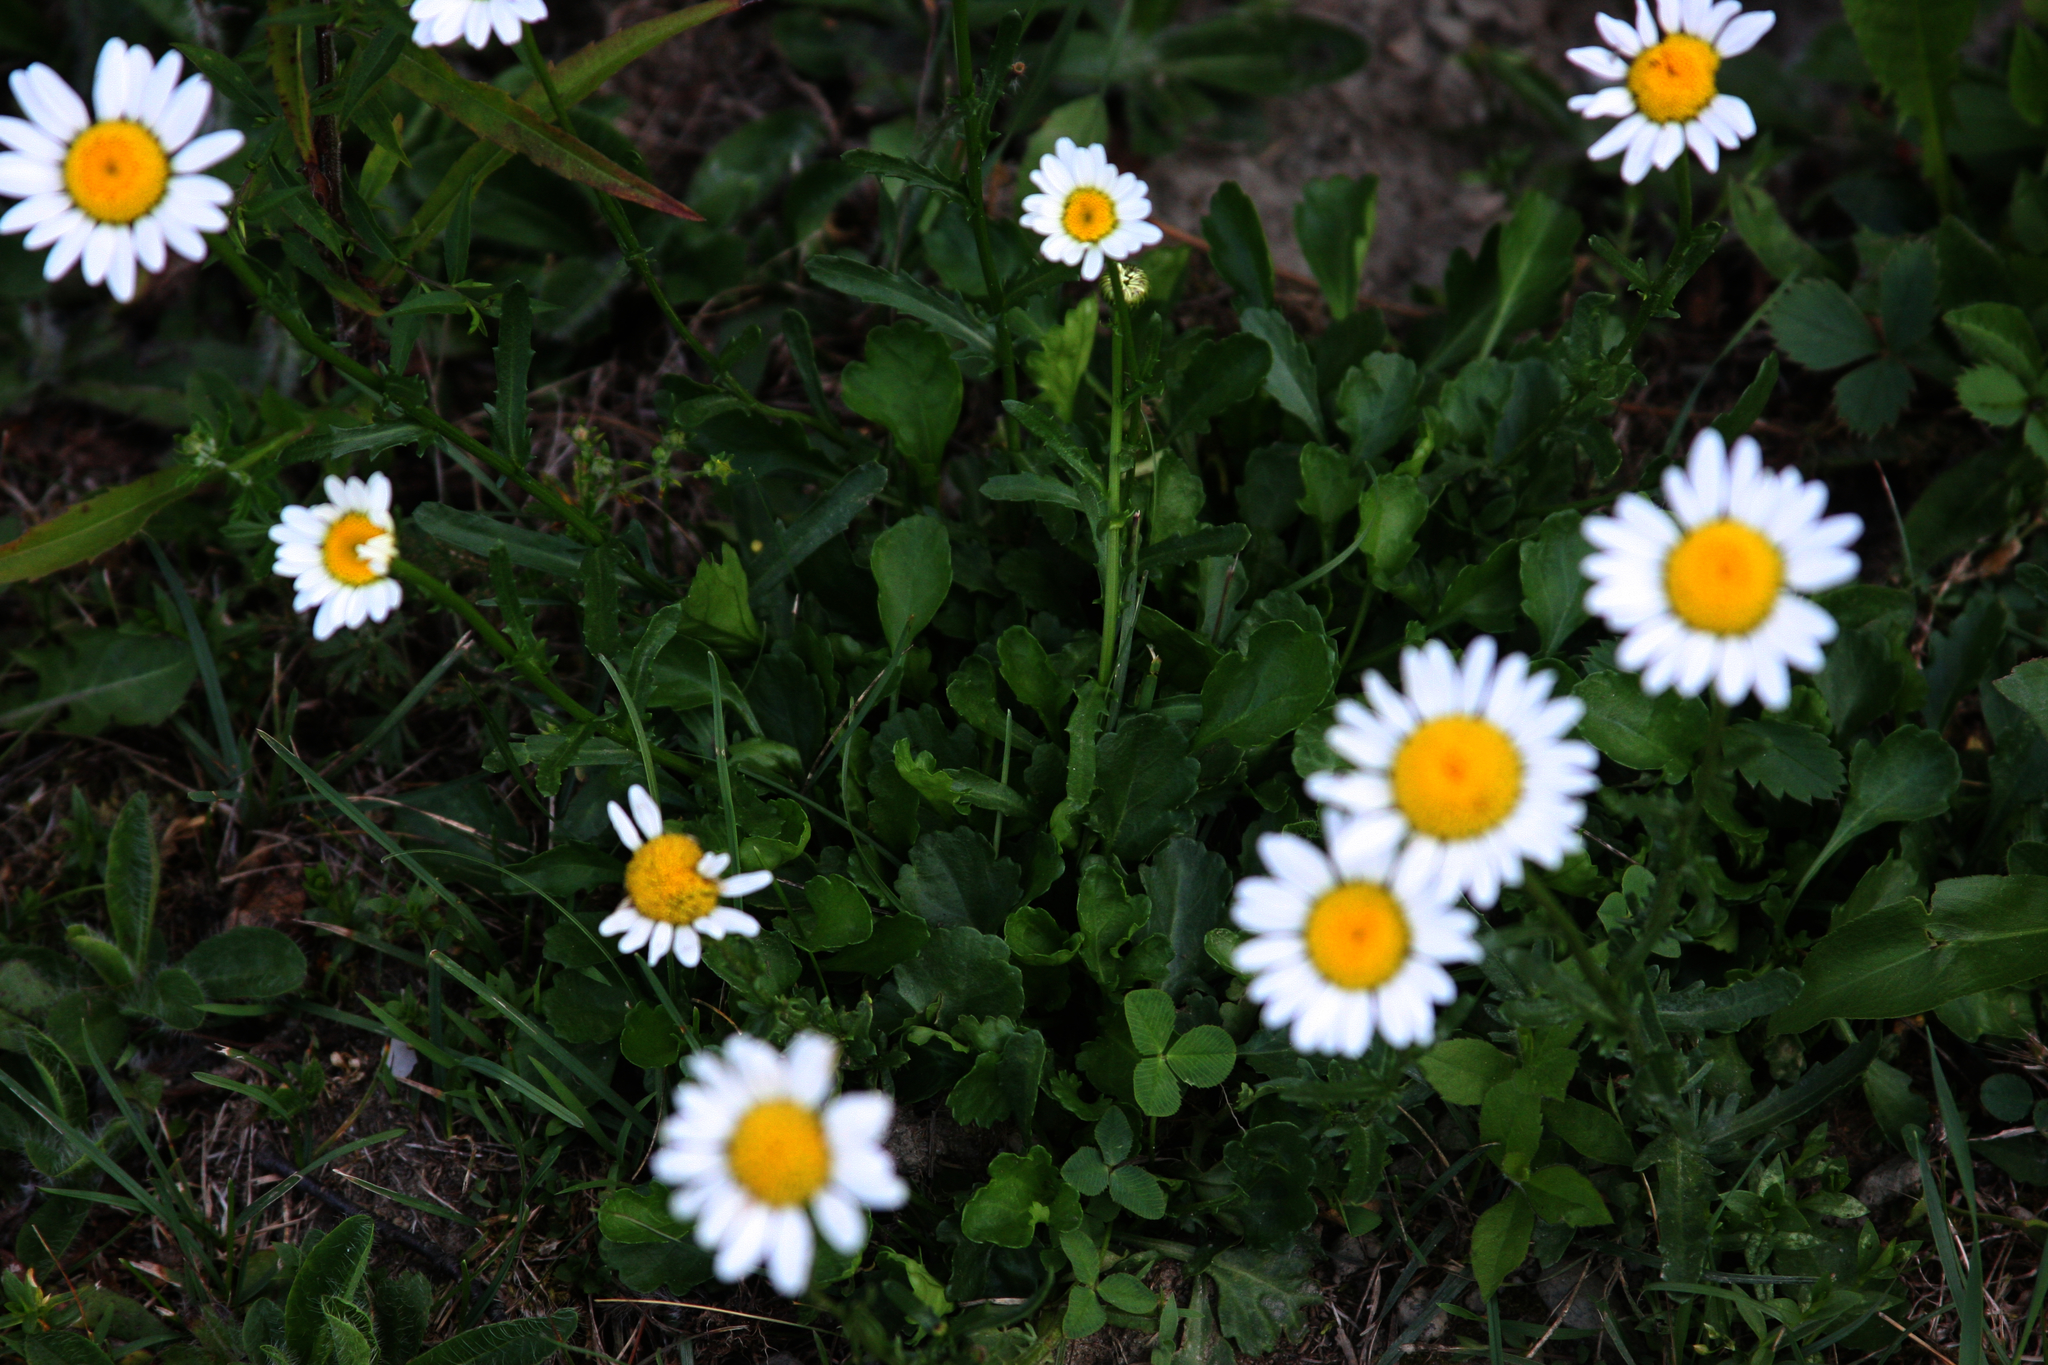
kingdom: Plantae
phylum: Tracheophyta
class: Magnoliopsida
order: Asterales
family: Asteraceae
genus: Leucanthemum
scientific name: Leucanthemum vulgare
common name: Oxeye daisy
